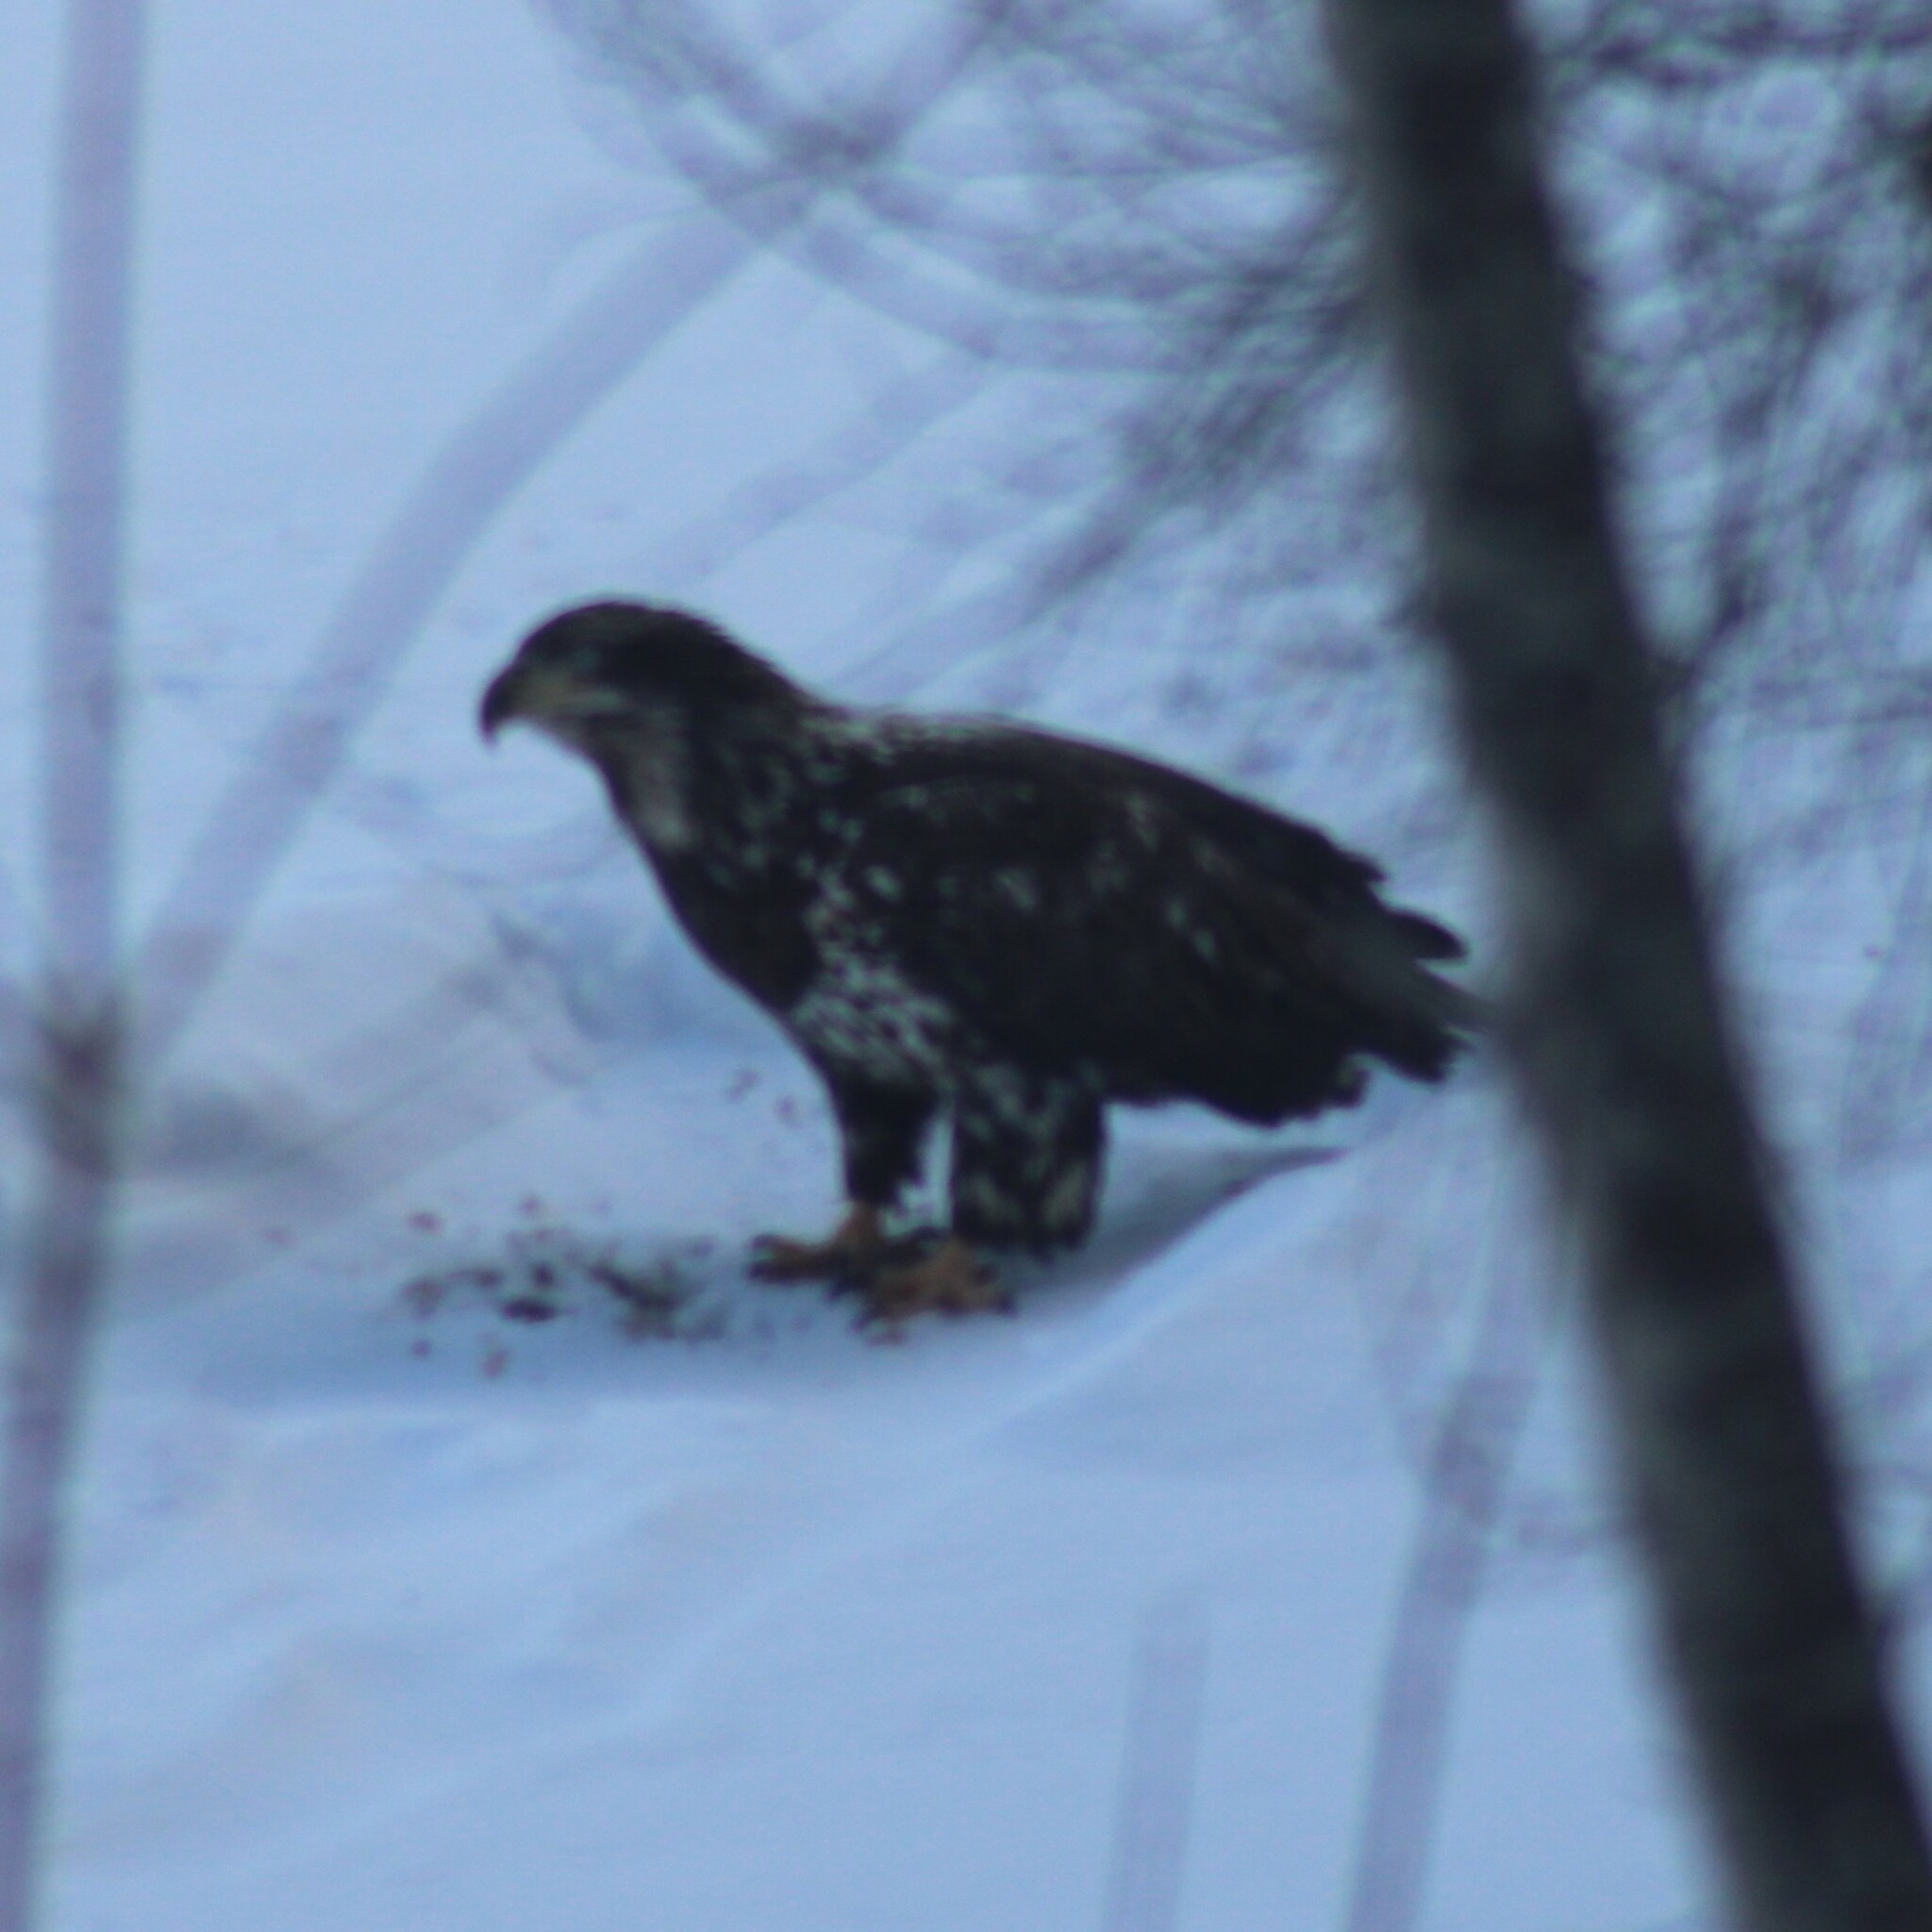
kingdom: Animalia
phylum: Chordata
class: Aves
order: Accipitriformes
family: Accipitridae
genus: Haliaeetus
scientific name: Haliaeetus leucocephalus
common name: Bald eagle
